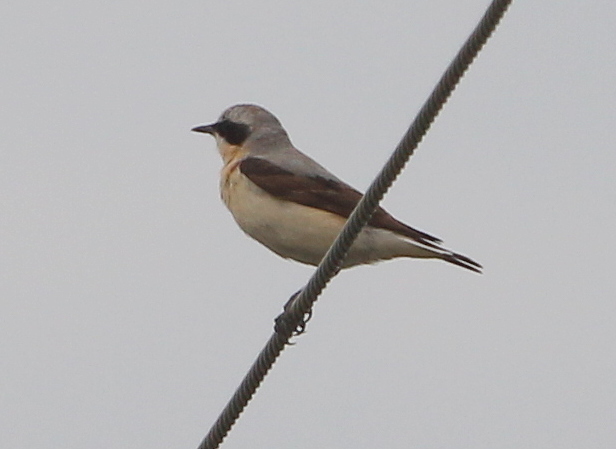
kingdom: Animalia
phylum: Chordata
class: Aves
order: Passeriformes
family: Muscicapidae
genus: Oenanthe
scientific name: Oenanthe oenanthe
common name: Northern wheatear
